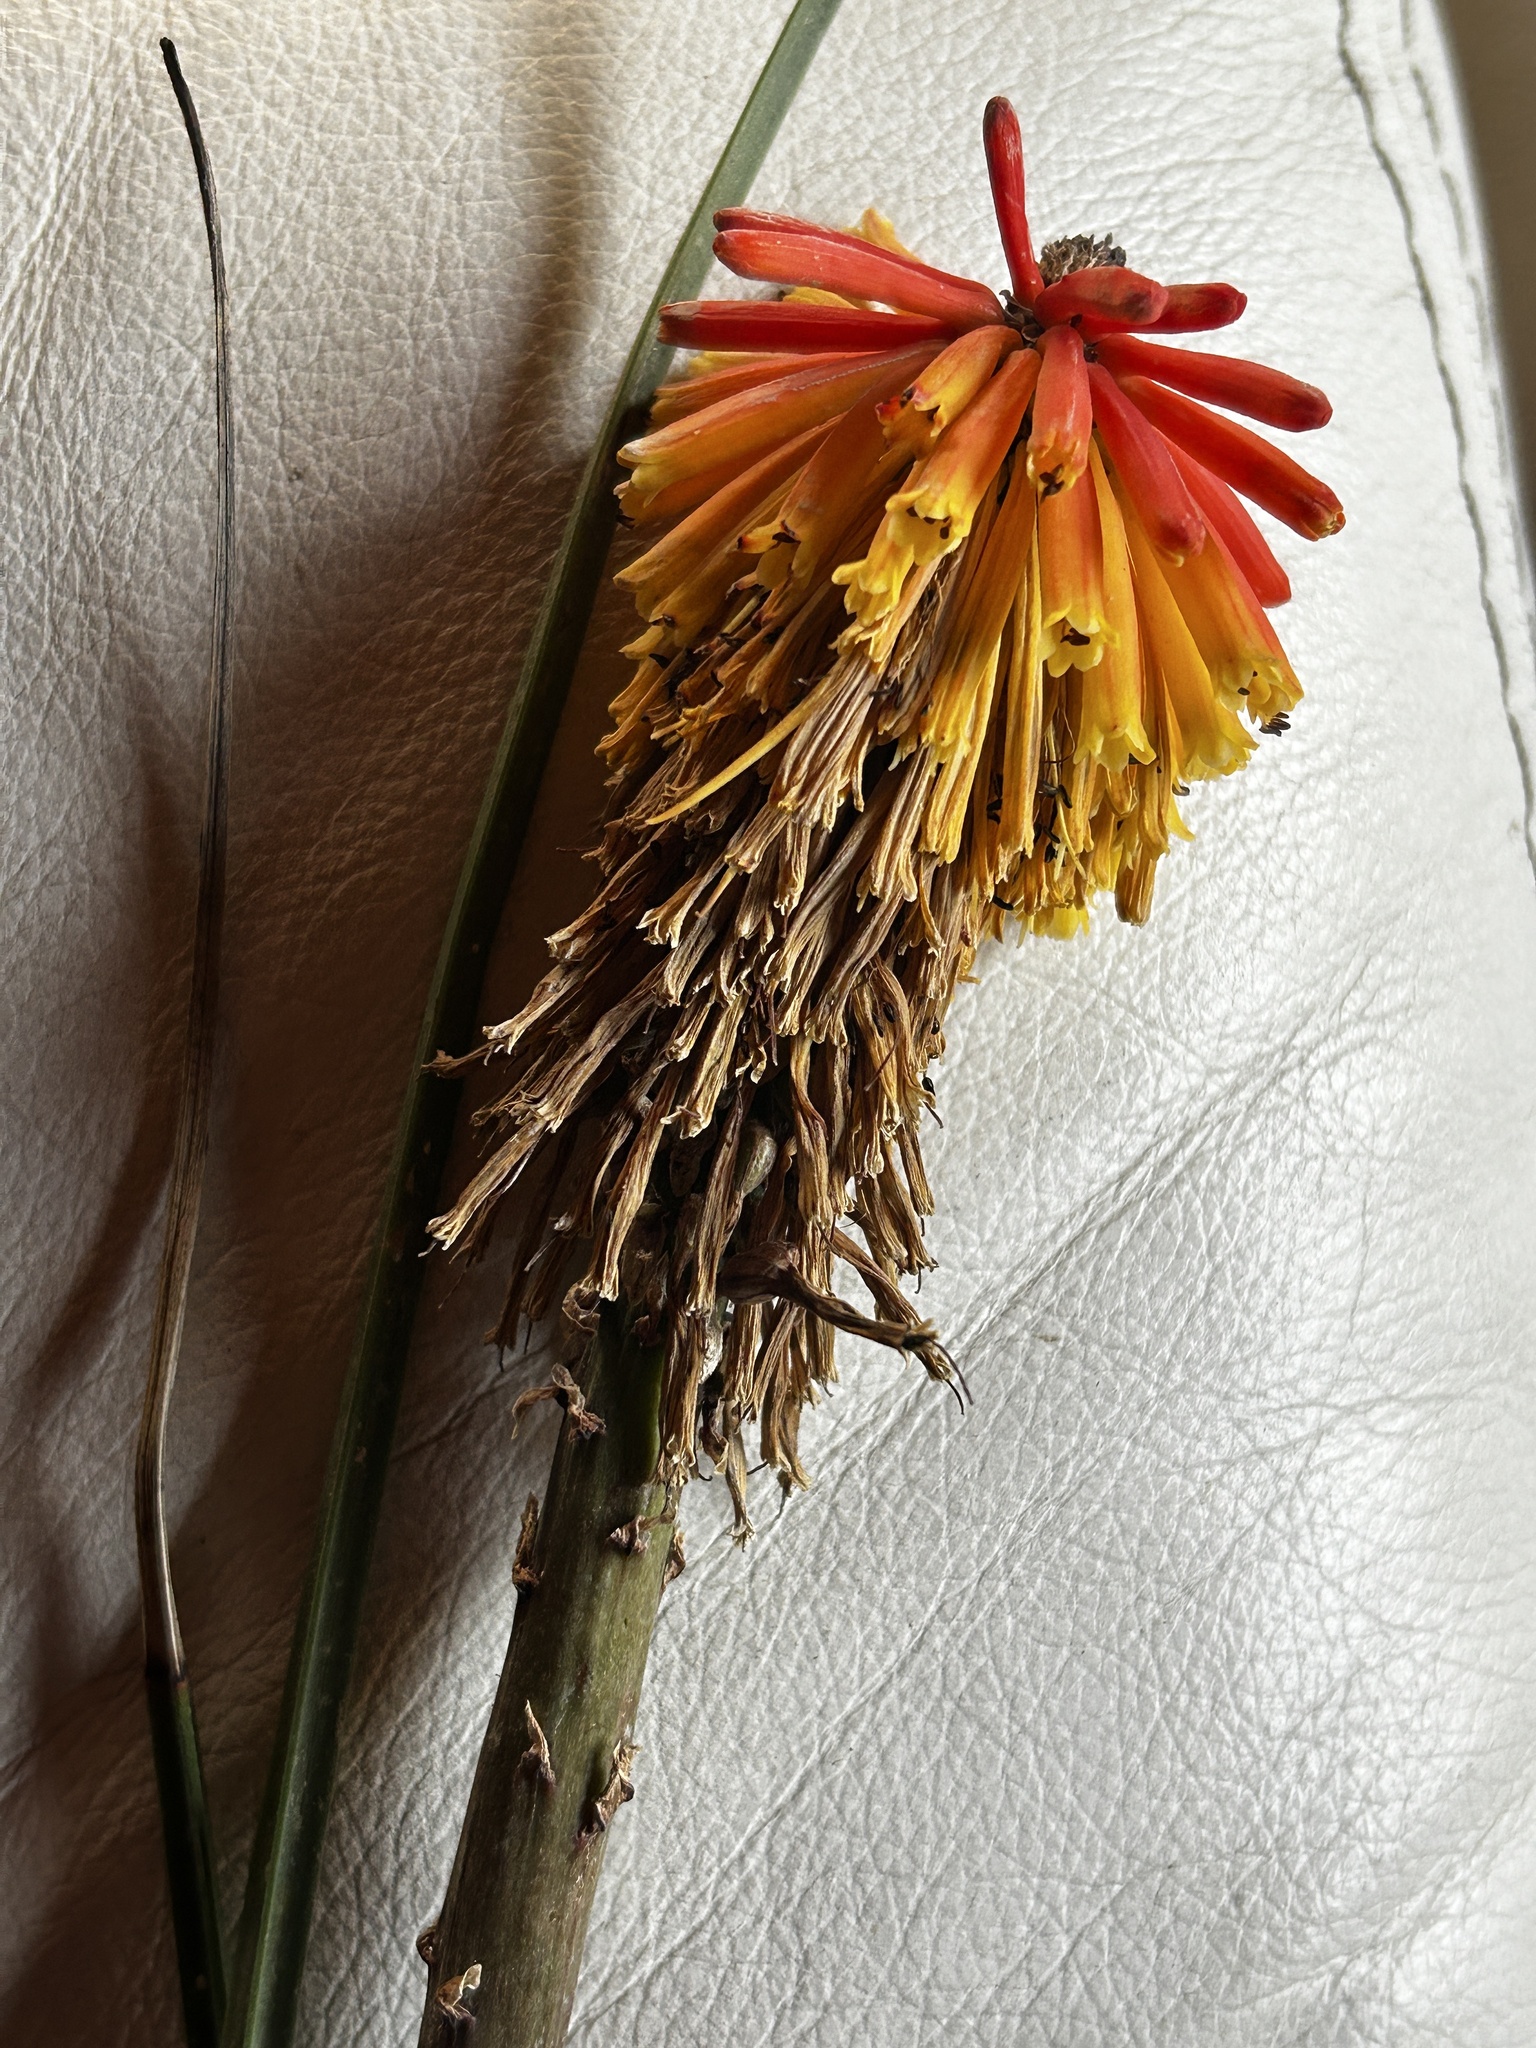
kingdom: Plantae
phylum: Tracheophyta
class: Liliopsida
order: Asparagales
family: Asphodelaceae
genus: Kniphofia
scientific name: Kniphofia uvaria
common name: Red-hot-poker
